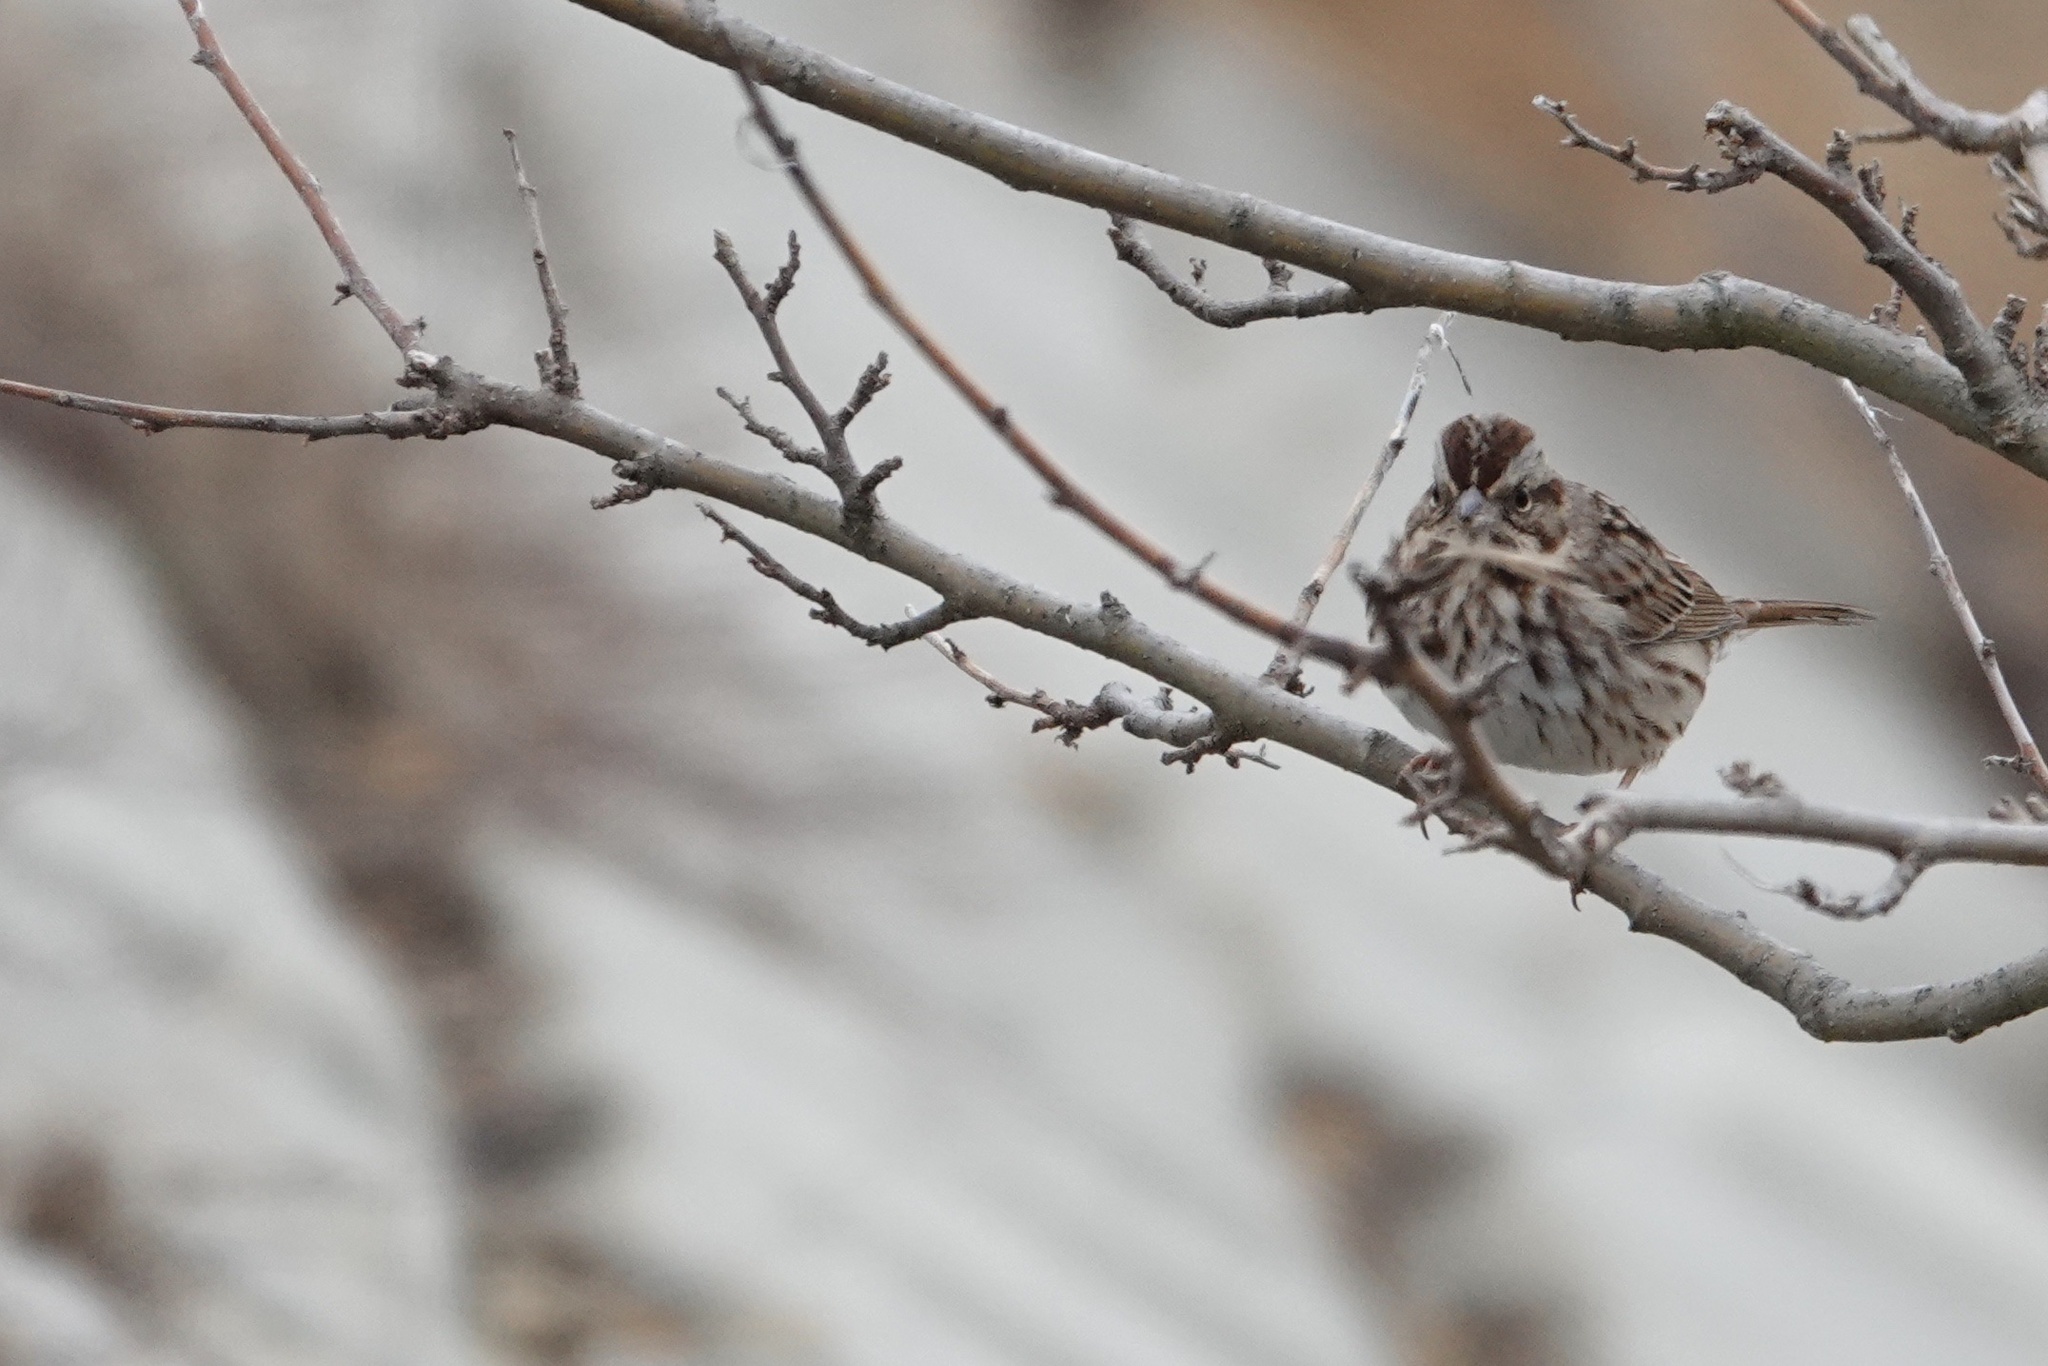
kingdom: Animalia
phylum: Chordata
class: Aves
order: Passeriformes
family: Passerellidae
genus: Melospiza
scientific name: Melospiza melodia
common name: Song sparrow
